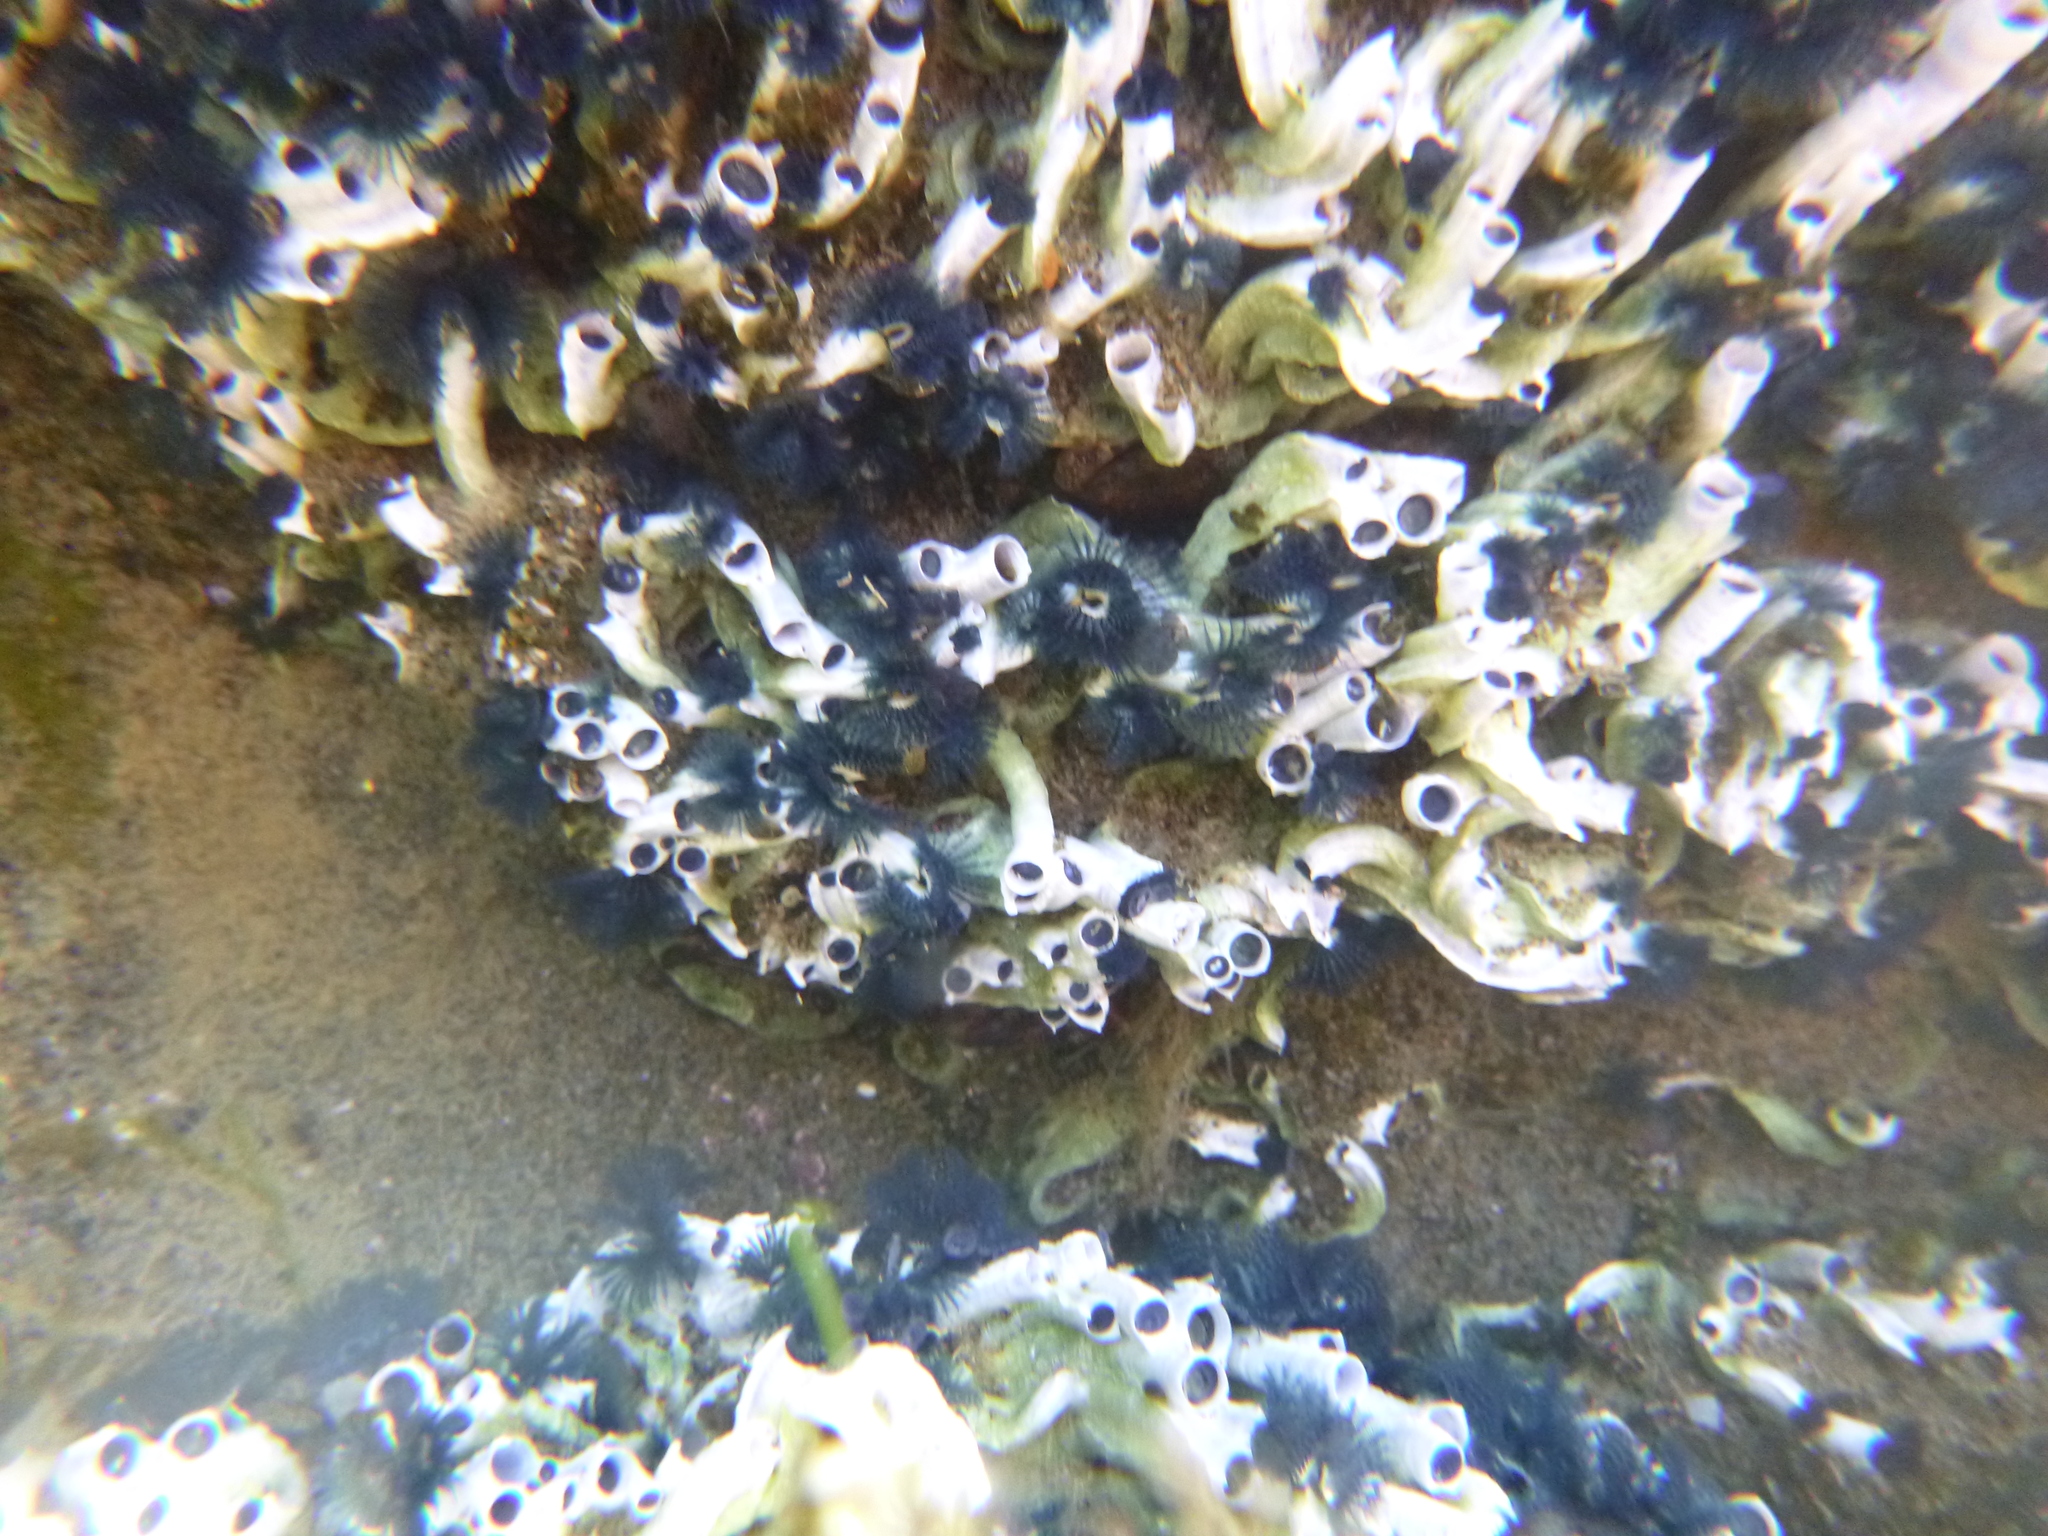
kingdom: Animalia
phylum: Annelida
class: Polychaeta
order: Sabellida
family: Serpulidae
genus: Spirobranchus
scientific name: Spirobranchus cariniferus
